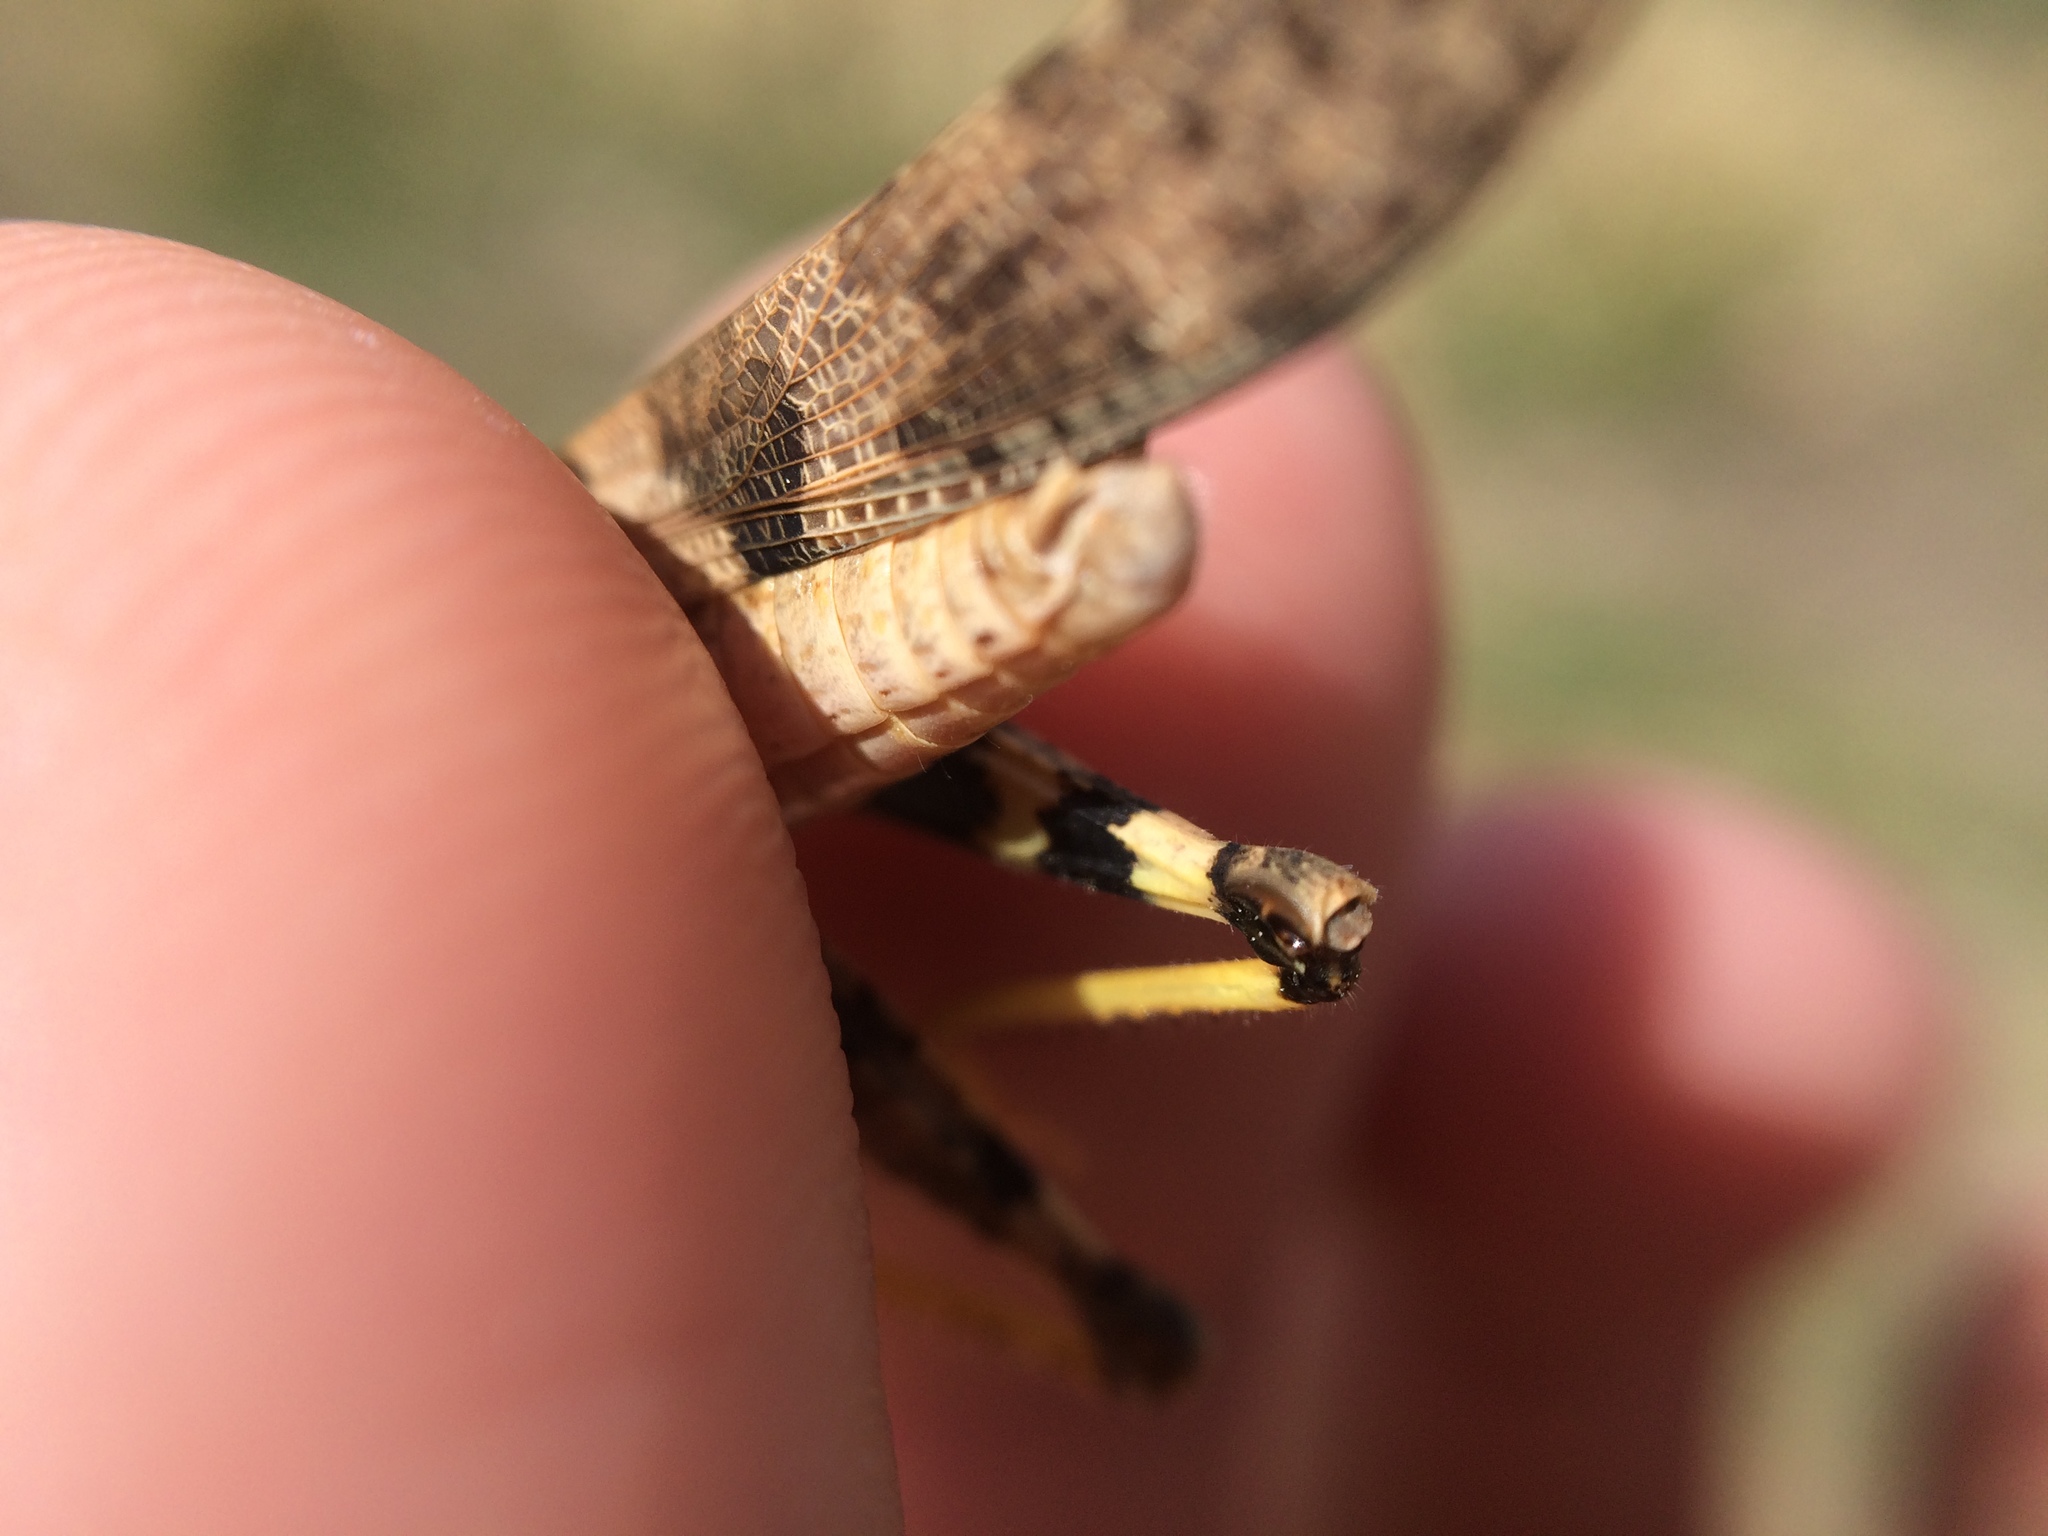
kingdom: Animalia
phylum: Arthropoda
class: Insecta
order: Orthoptera
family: Acrididae
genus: Trimerotropis
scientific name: Trimerotropis pallidipennis
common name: Pallid-winged grasshopper
